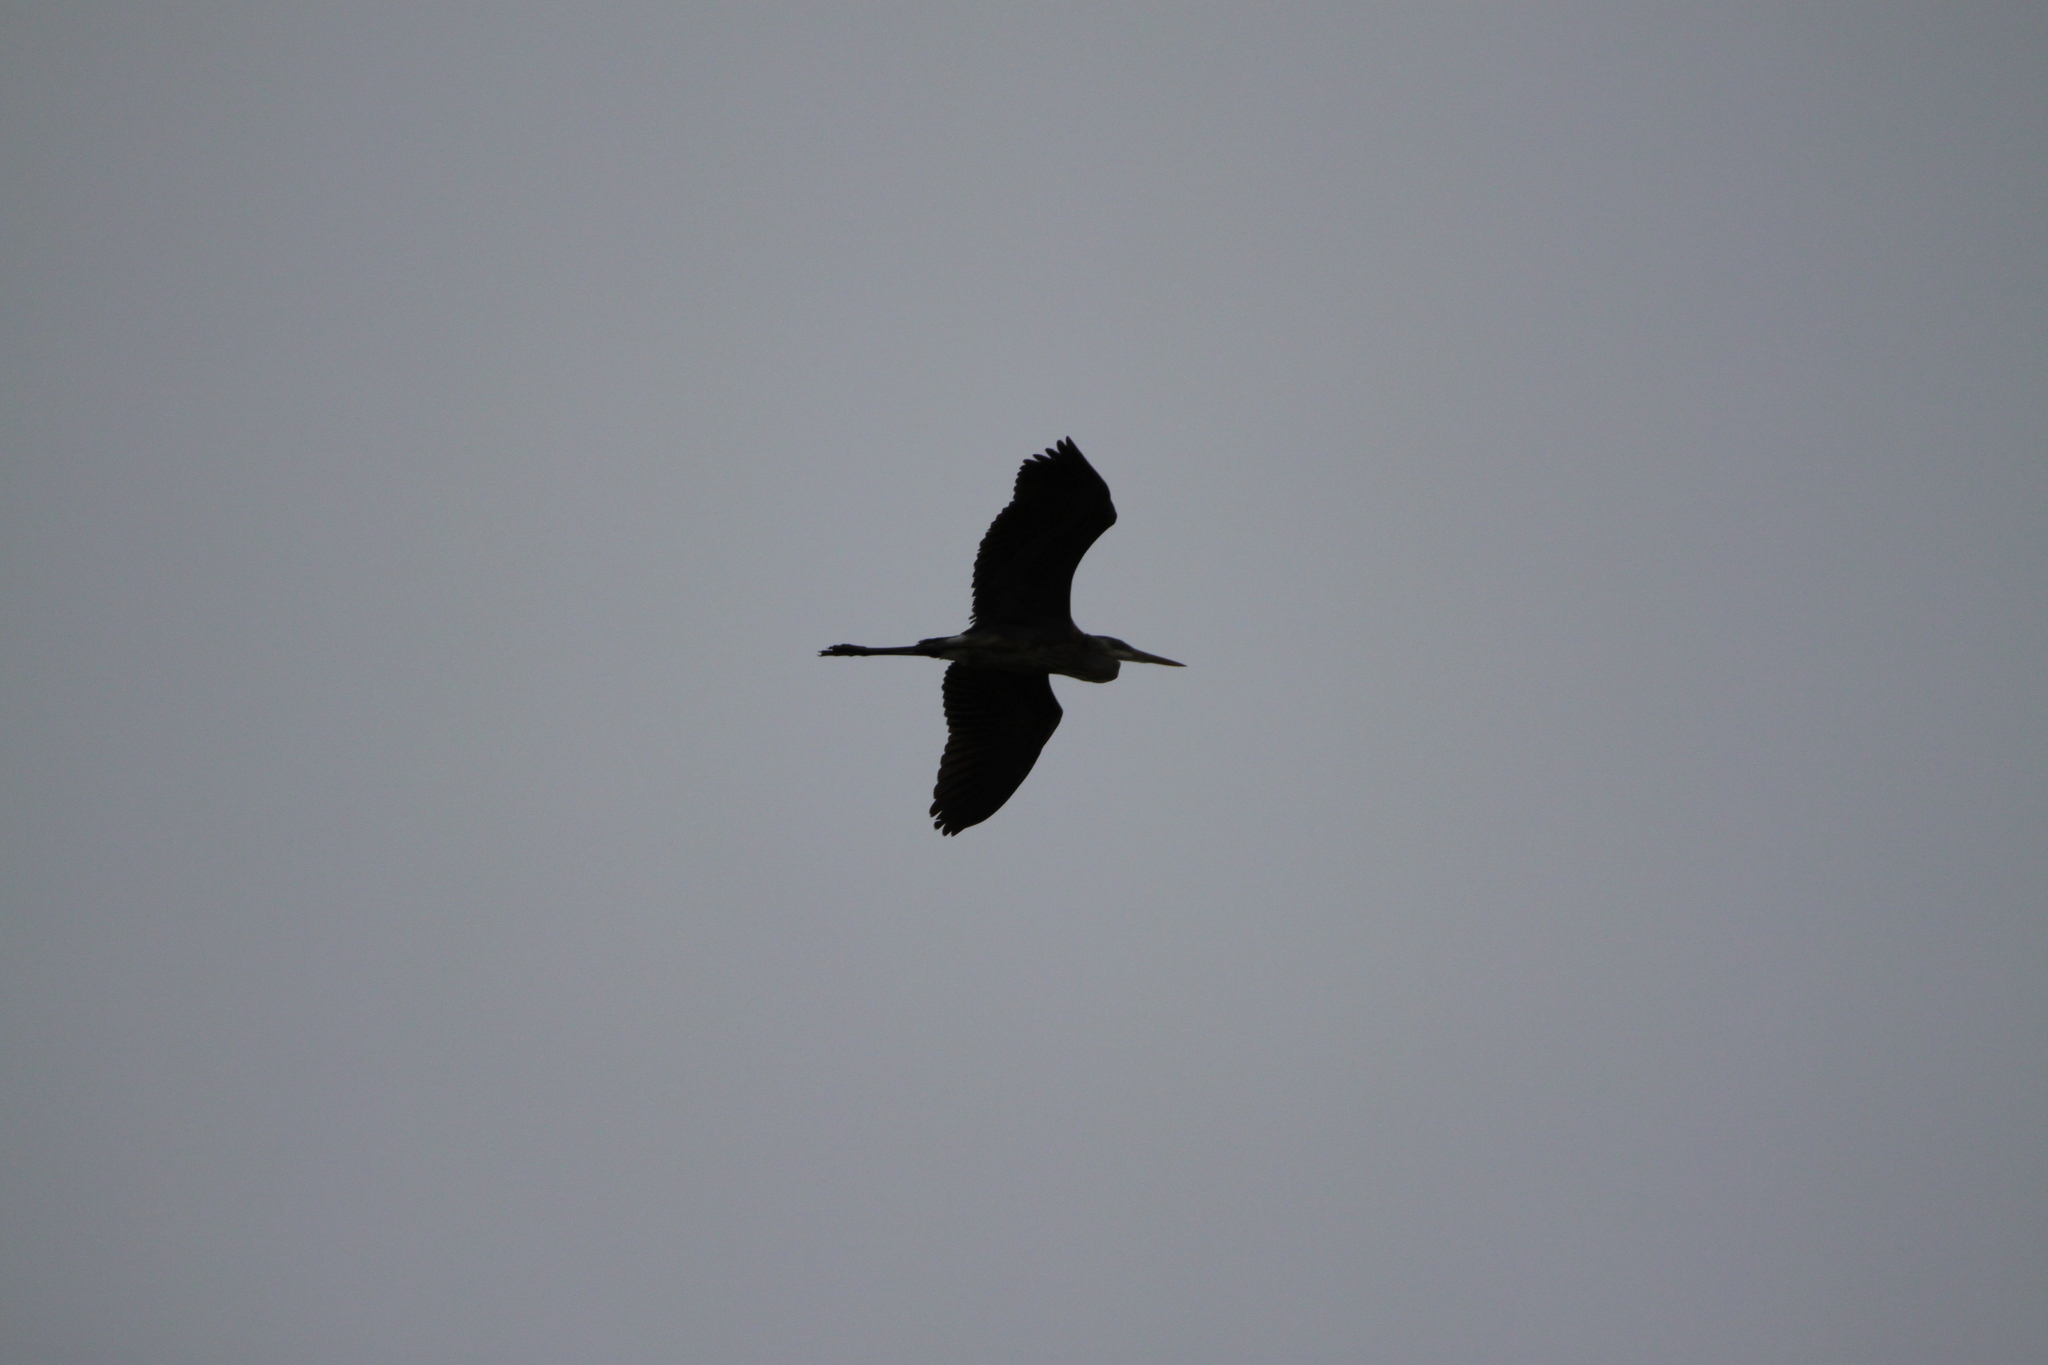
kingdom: Animalia
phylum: Chordata
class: Aves
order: Pelecaniformes
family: Ardeidae
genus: Ardea
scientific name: Ardea herodias
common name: Great blue heron
